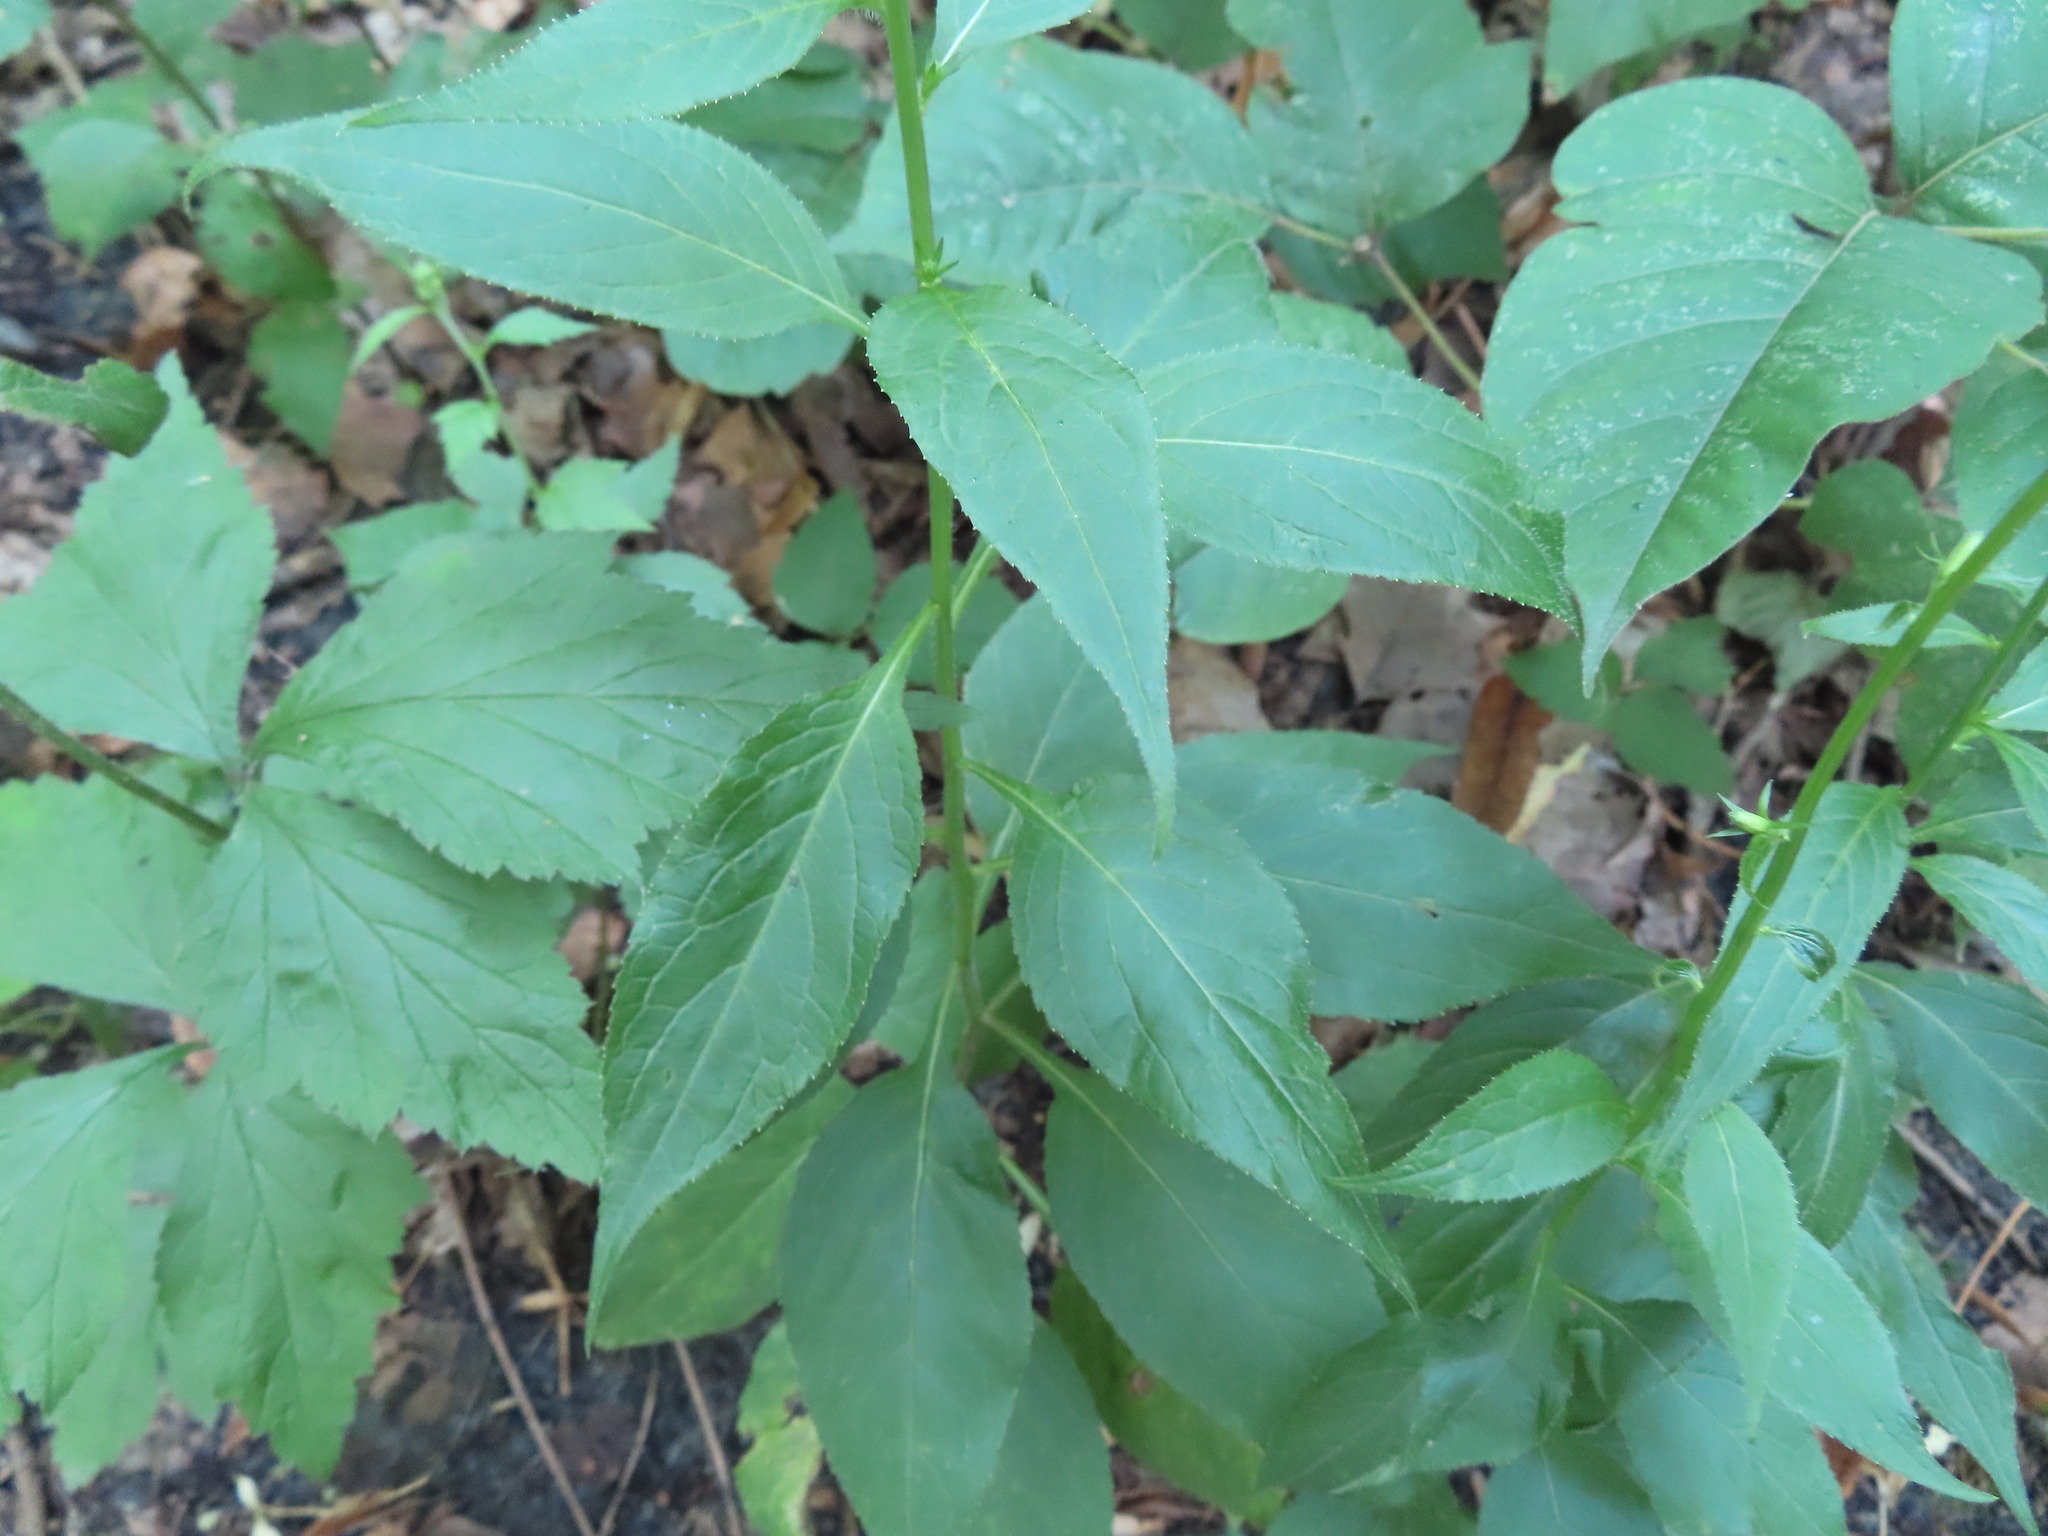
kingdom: Plantae
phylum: Tracheophyta
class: Magnoliopsida
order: Asterales
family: Campanulaceae
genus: Campanulastrum
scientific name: Campanulastrum americanum
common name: American bellflower
